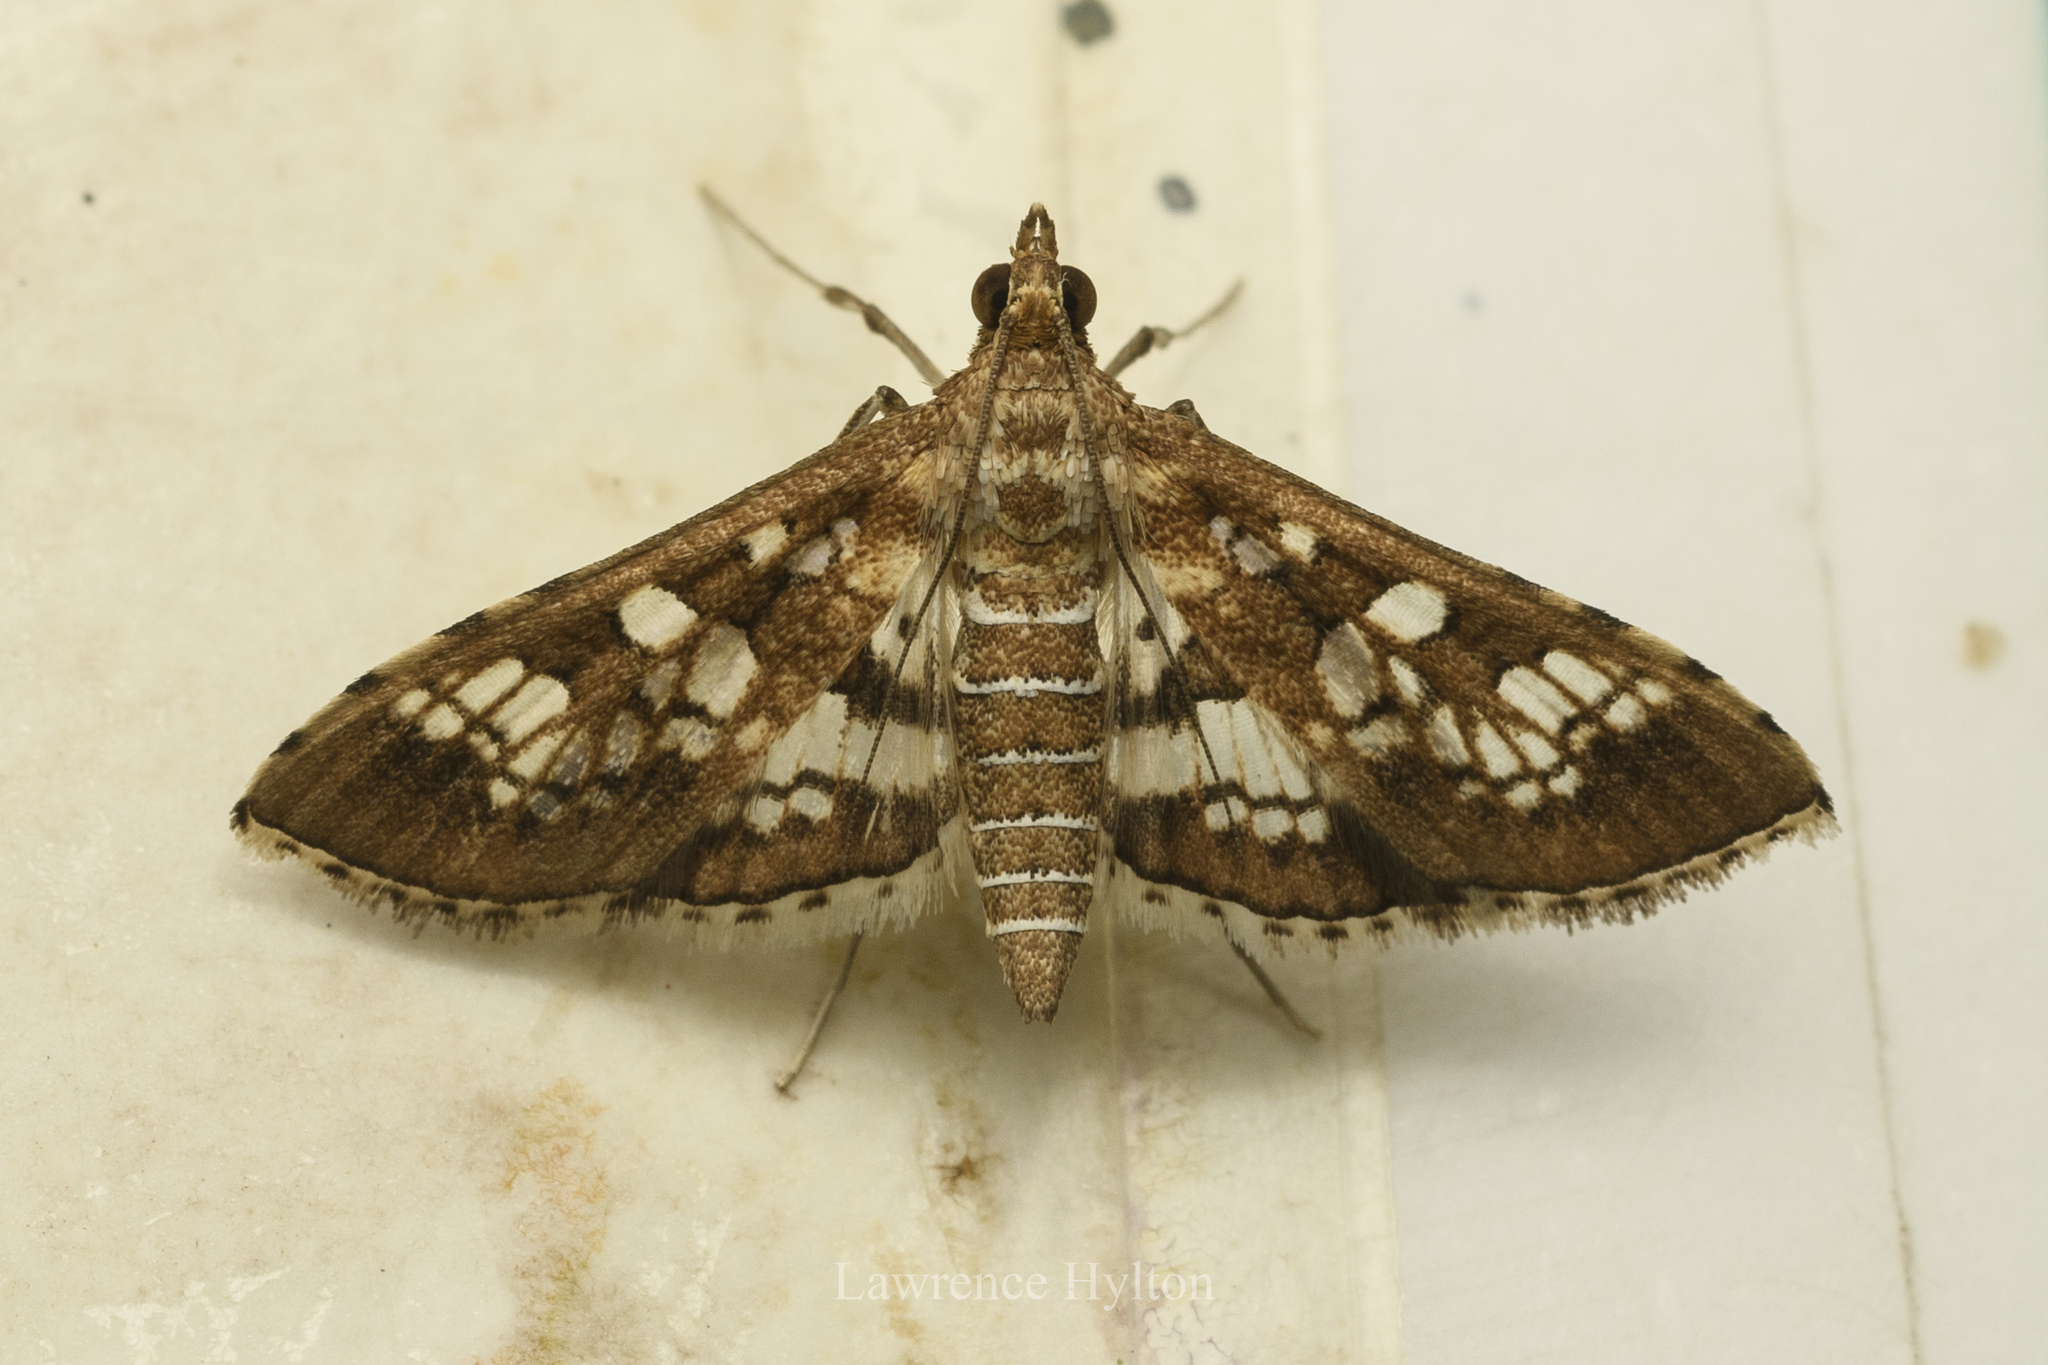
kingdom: Animalia
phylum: Arthropoda
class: Insecta
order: Lepidoptera
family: Crambidae
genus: Sameodes
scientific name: Sameodes cancellalis
